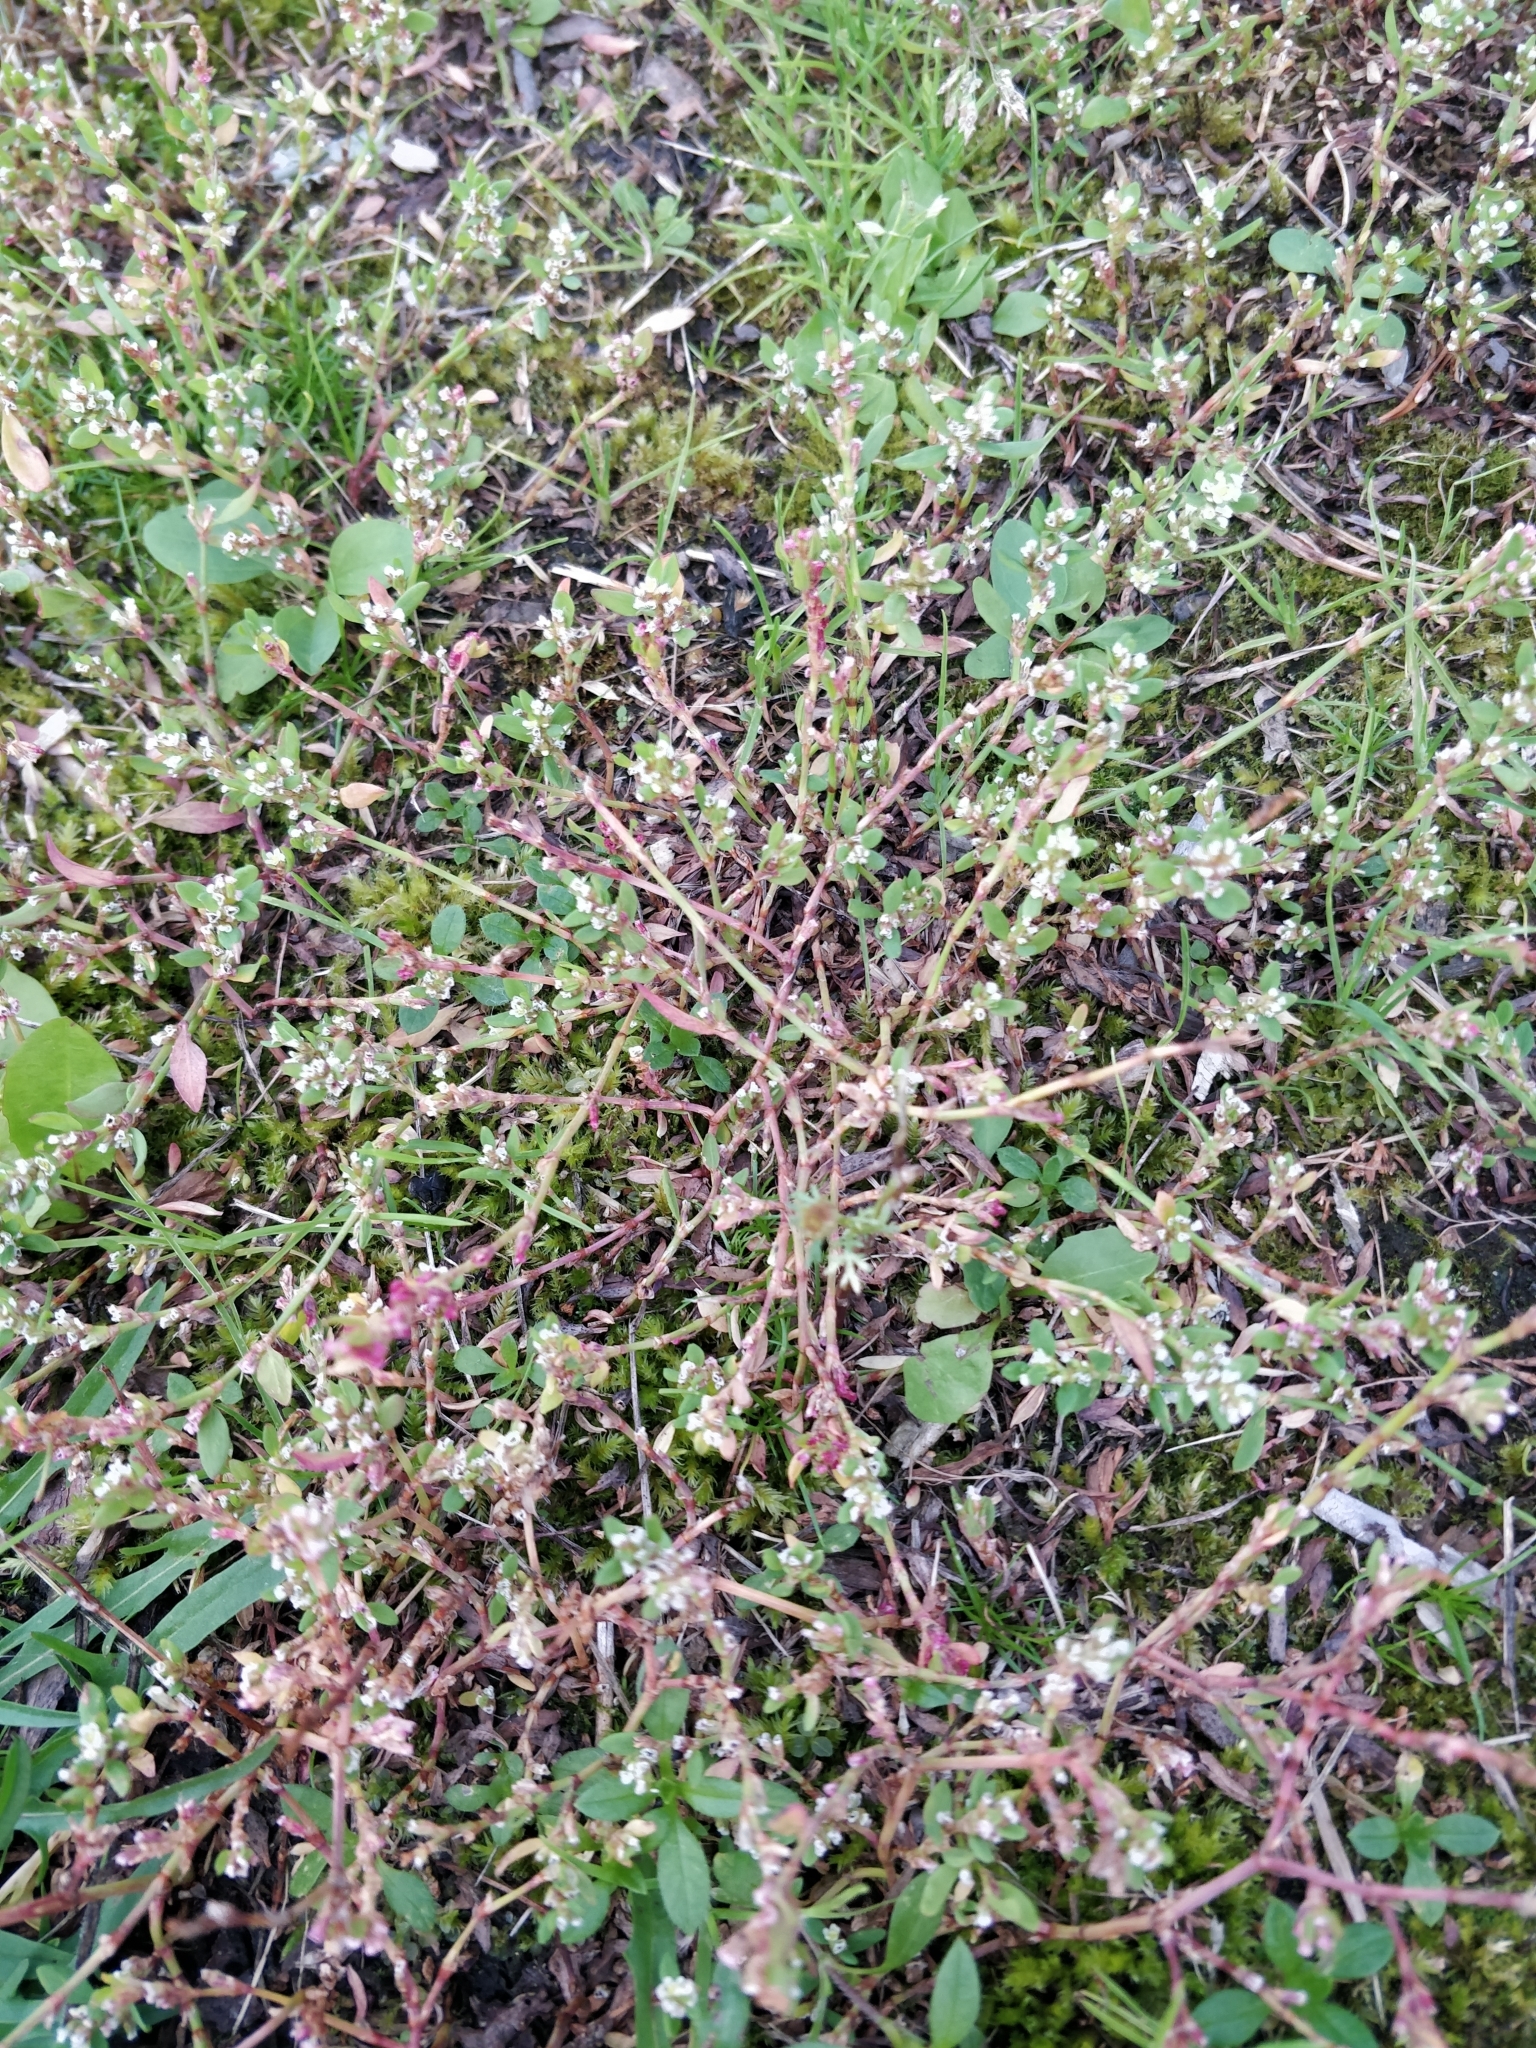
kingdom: Plantae
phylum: Tracheophyta
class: Magnoliopsida
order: Caryophyllales
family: Polygonaceae
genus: Polygonum
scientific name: Polygonum aviculare
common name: Prostrate knotweed
